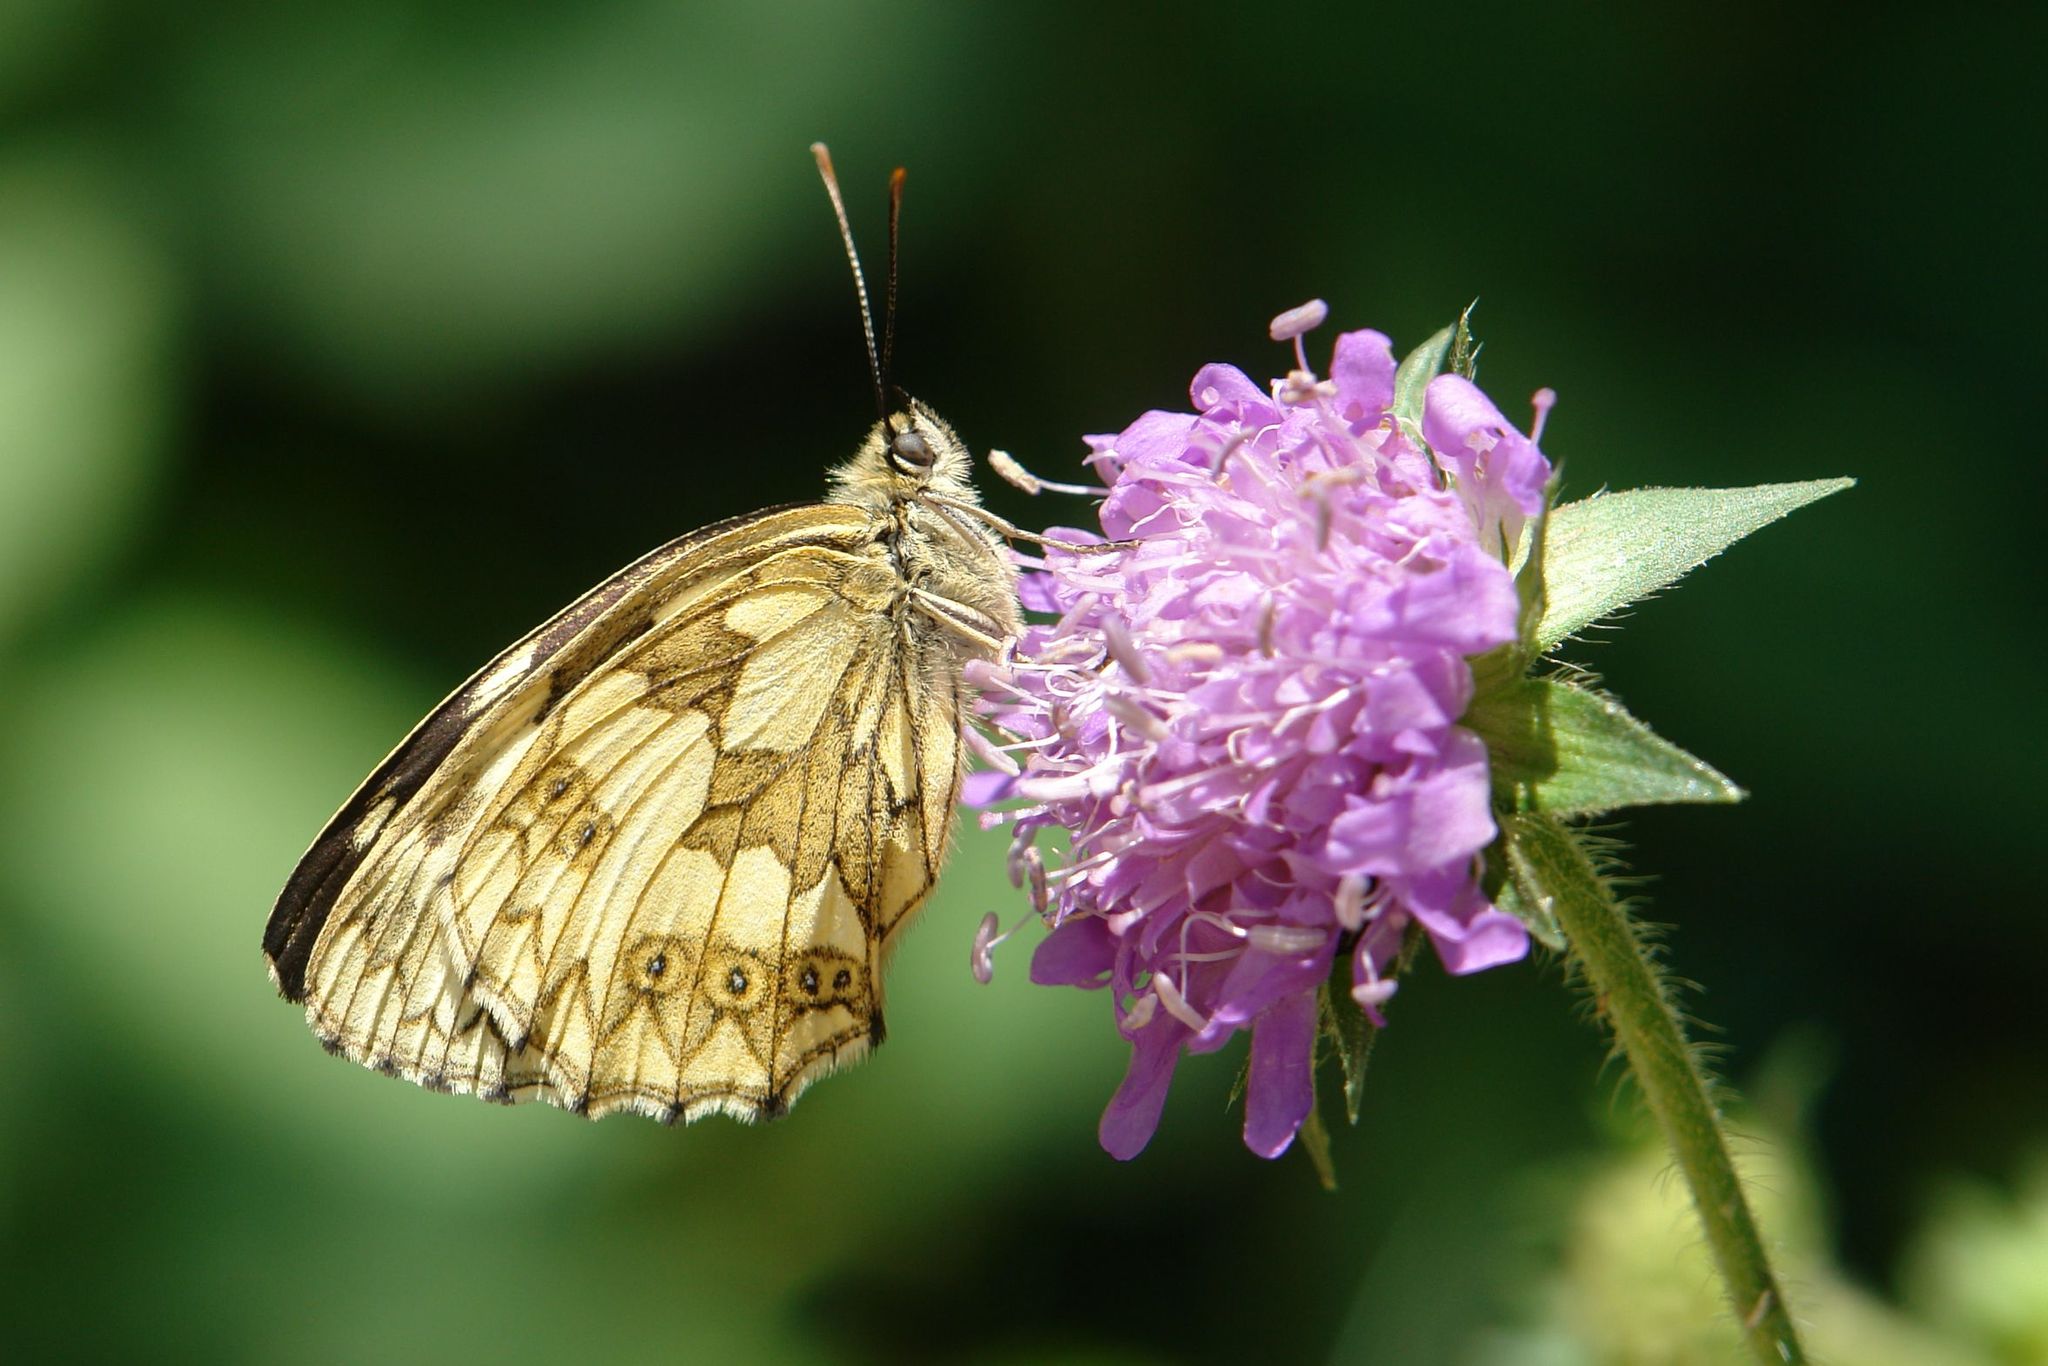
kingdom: Animalia
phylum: Arthropoda
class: Insecta
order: Lepidoptera
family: Nymphalidae
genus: Melanargia
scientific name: Melanargia galathea
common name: Marbled white
